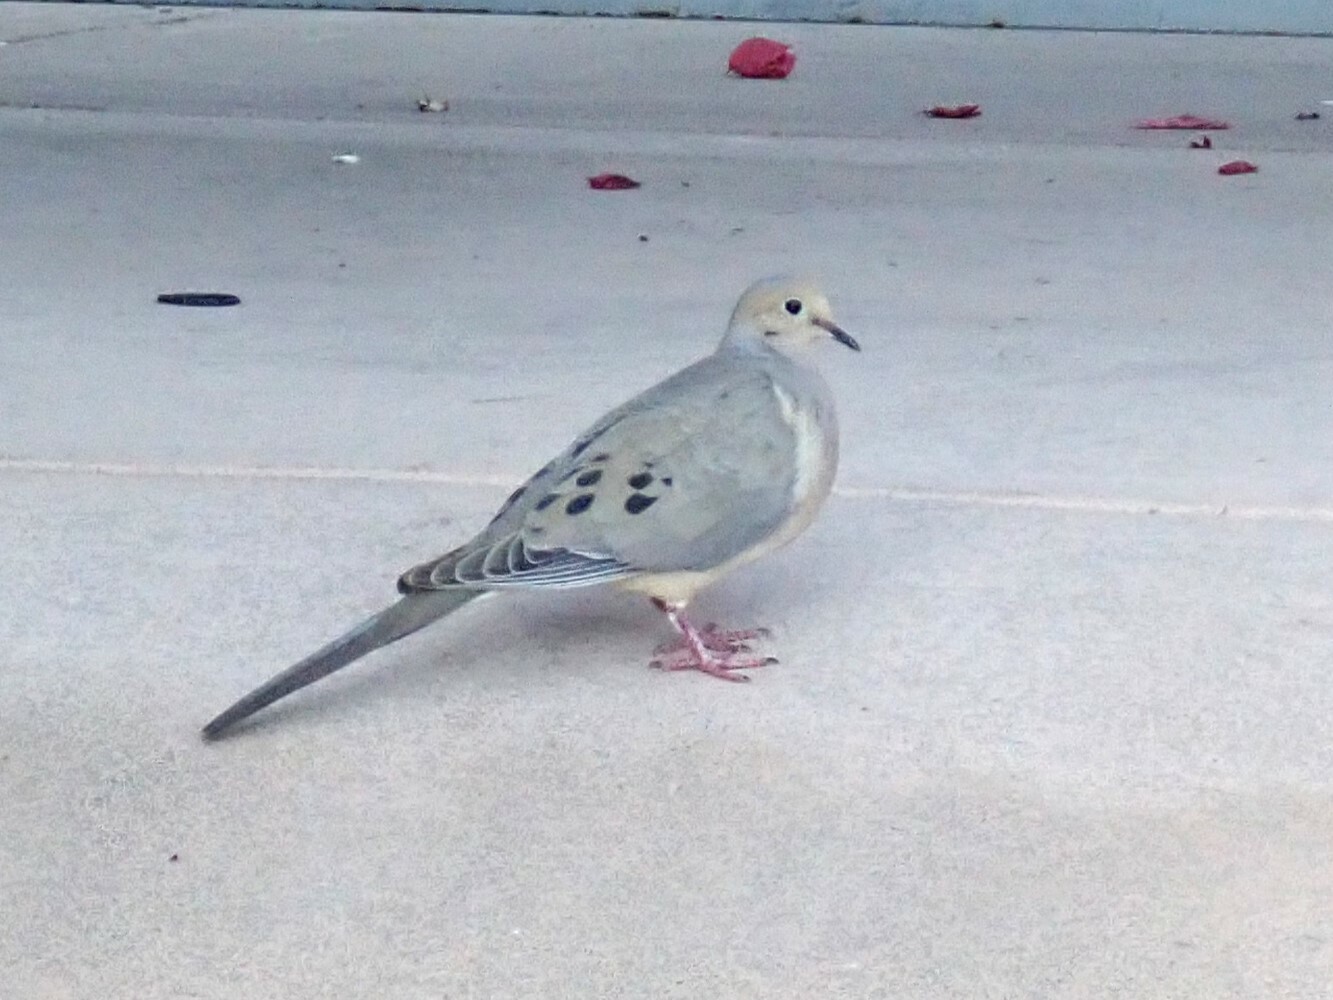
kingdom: Animalia
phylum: Chordata
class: Aves
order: Columbiformes
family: Columbidae
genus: Zenaida
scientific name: Zenaida macroura
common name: Mourning dove
